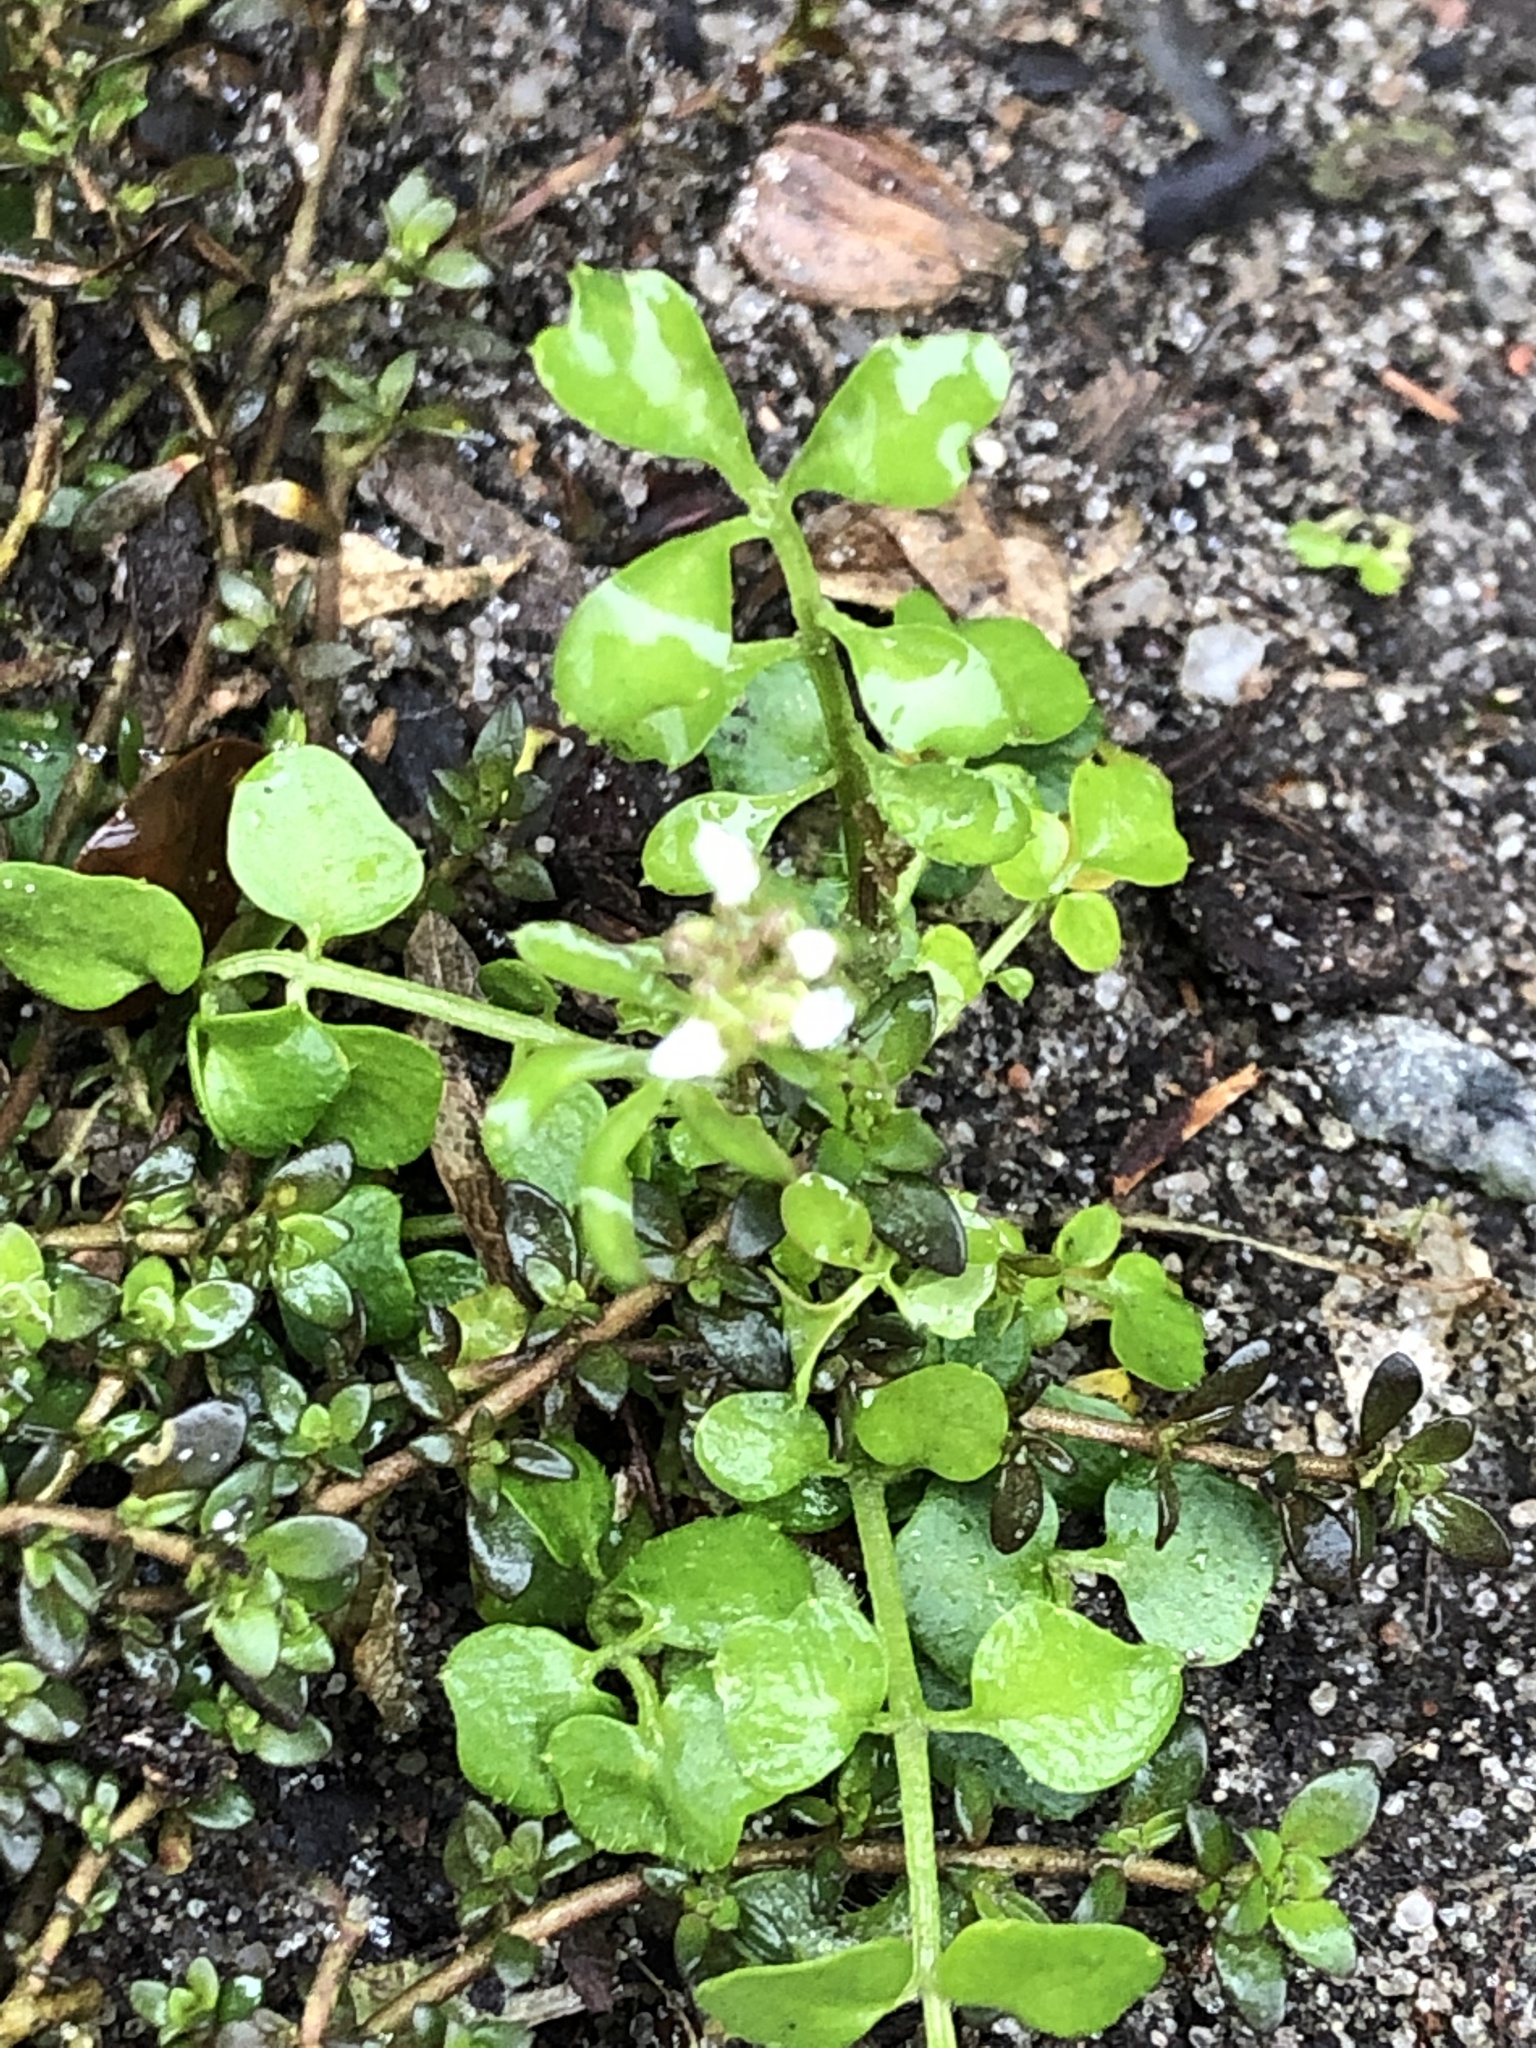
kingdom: Plantae
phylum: Tracheophyta
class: Magnoliopsida
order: Brassicales
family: Brassicaceae
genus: Cardamine
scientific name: Cardamine hirsuta
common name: Hairy bittercress
